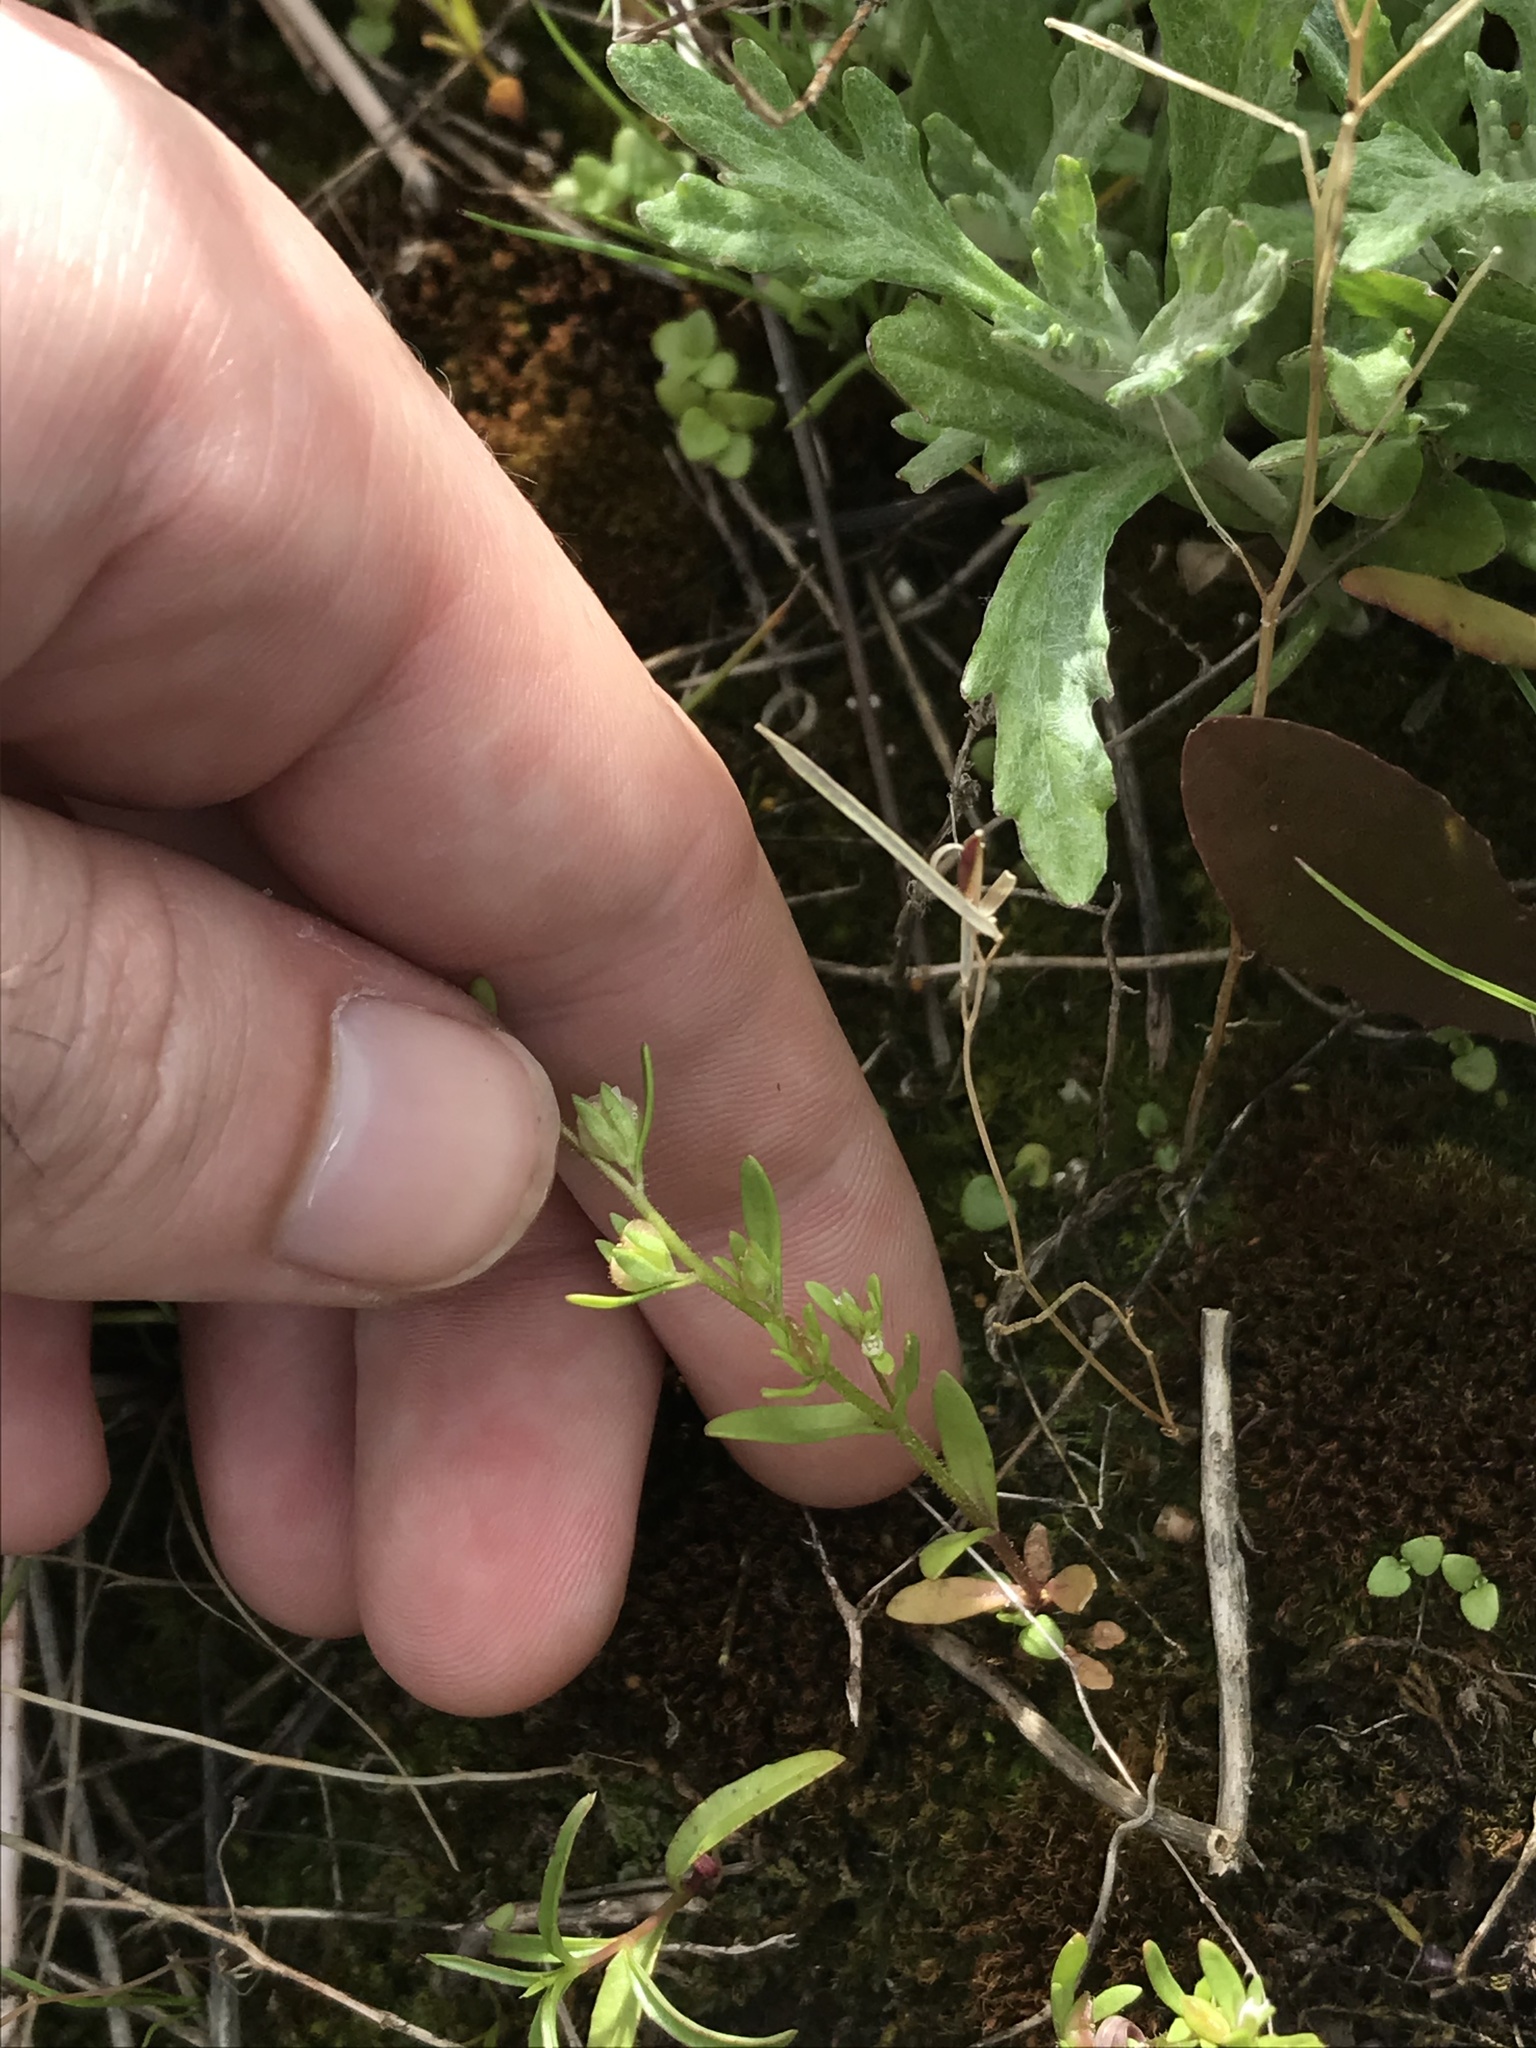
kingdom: Plantae
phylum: Tracheophyta
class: Magnoliopsida
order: Lamiales
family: Plantaginaceae
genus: Veronica
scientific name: Veronica peregrina
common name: Neckweed
